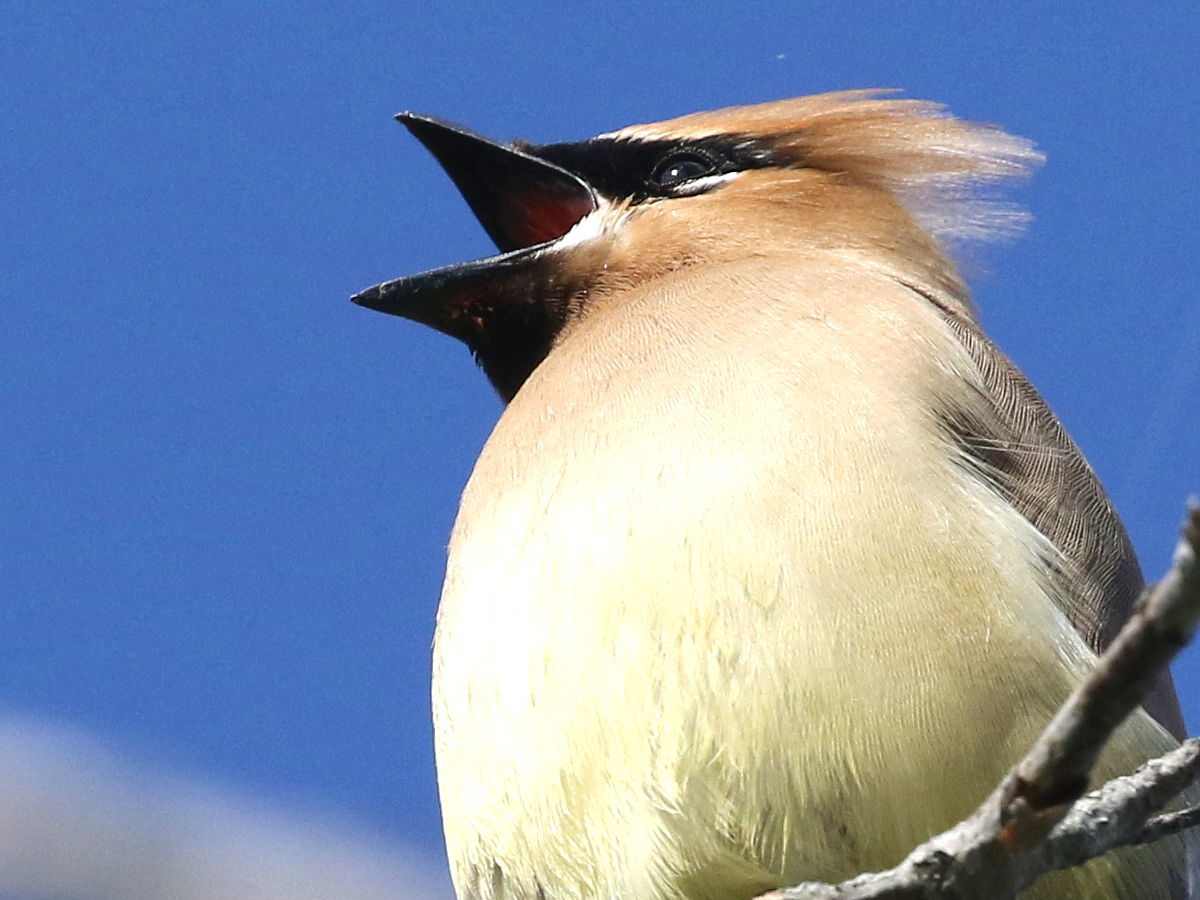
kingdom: Animalia
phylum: Chordata
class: Aves
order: Passeriformes
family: Bombycillidae
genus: Bombycilla
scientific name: Bombycilla cedrorum
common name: Cedar waxwing
